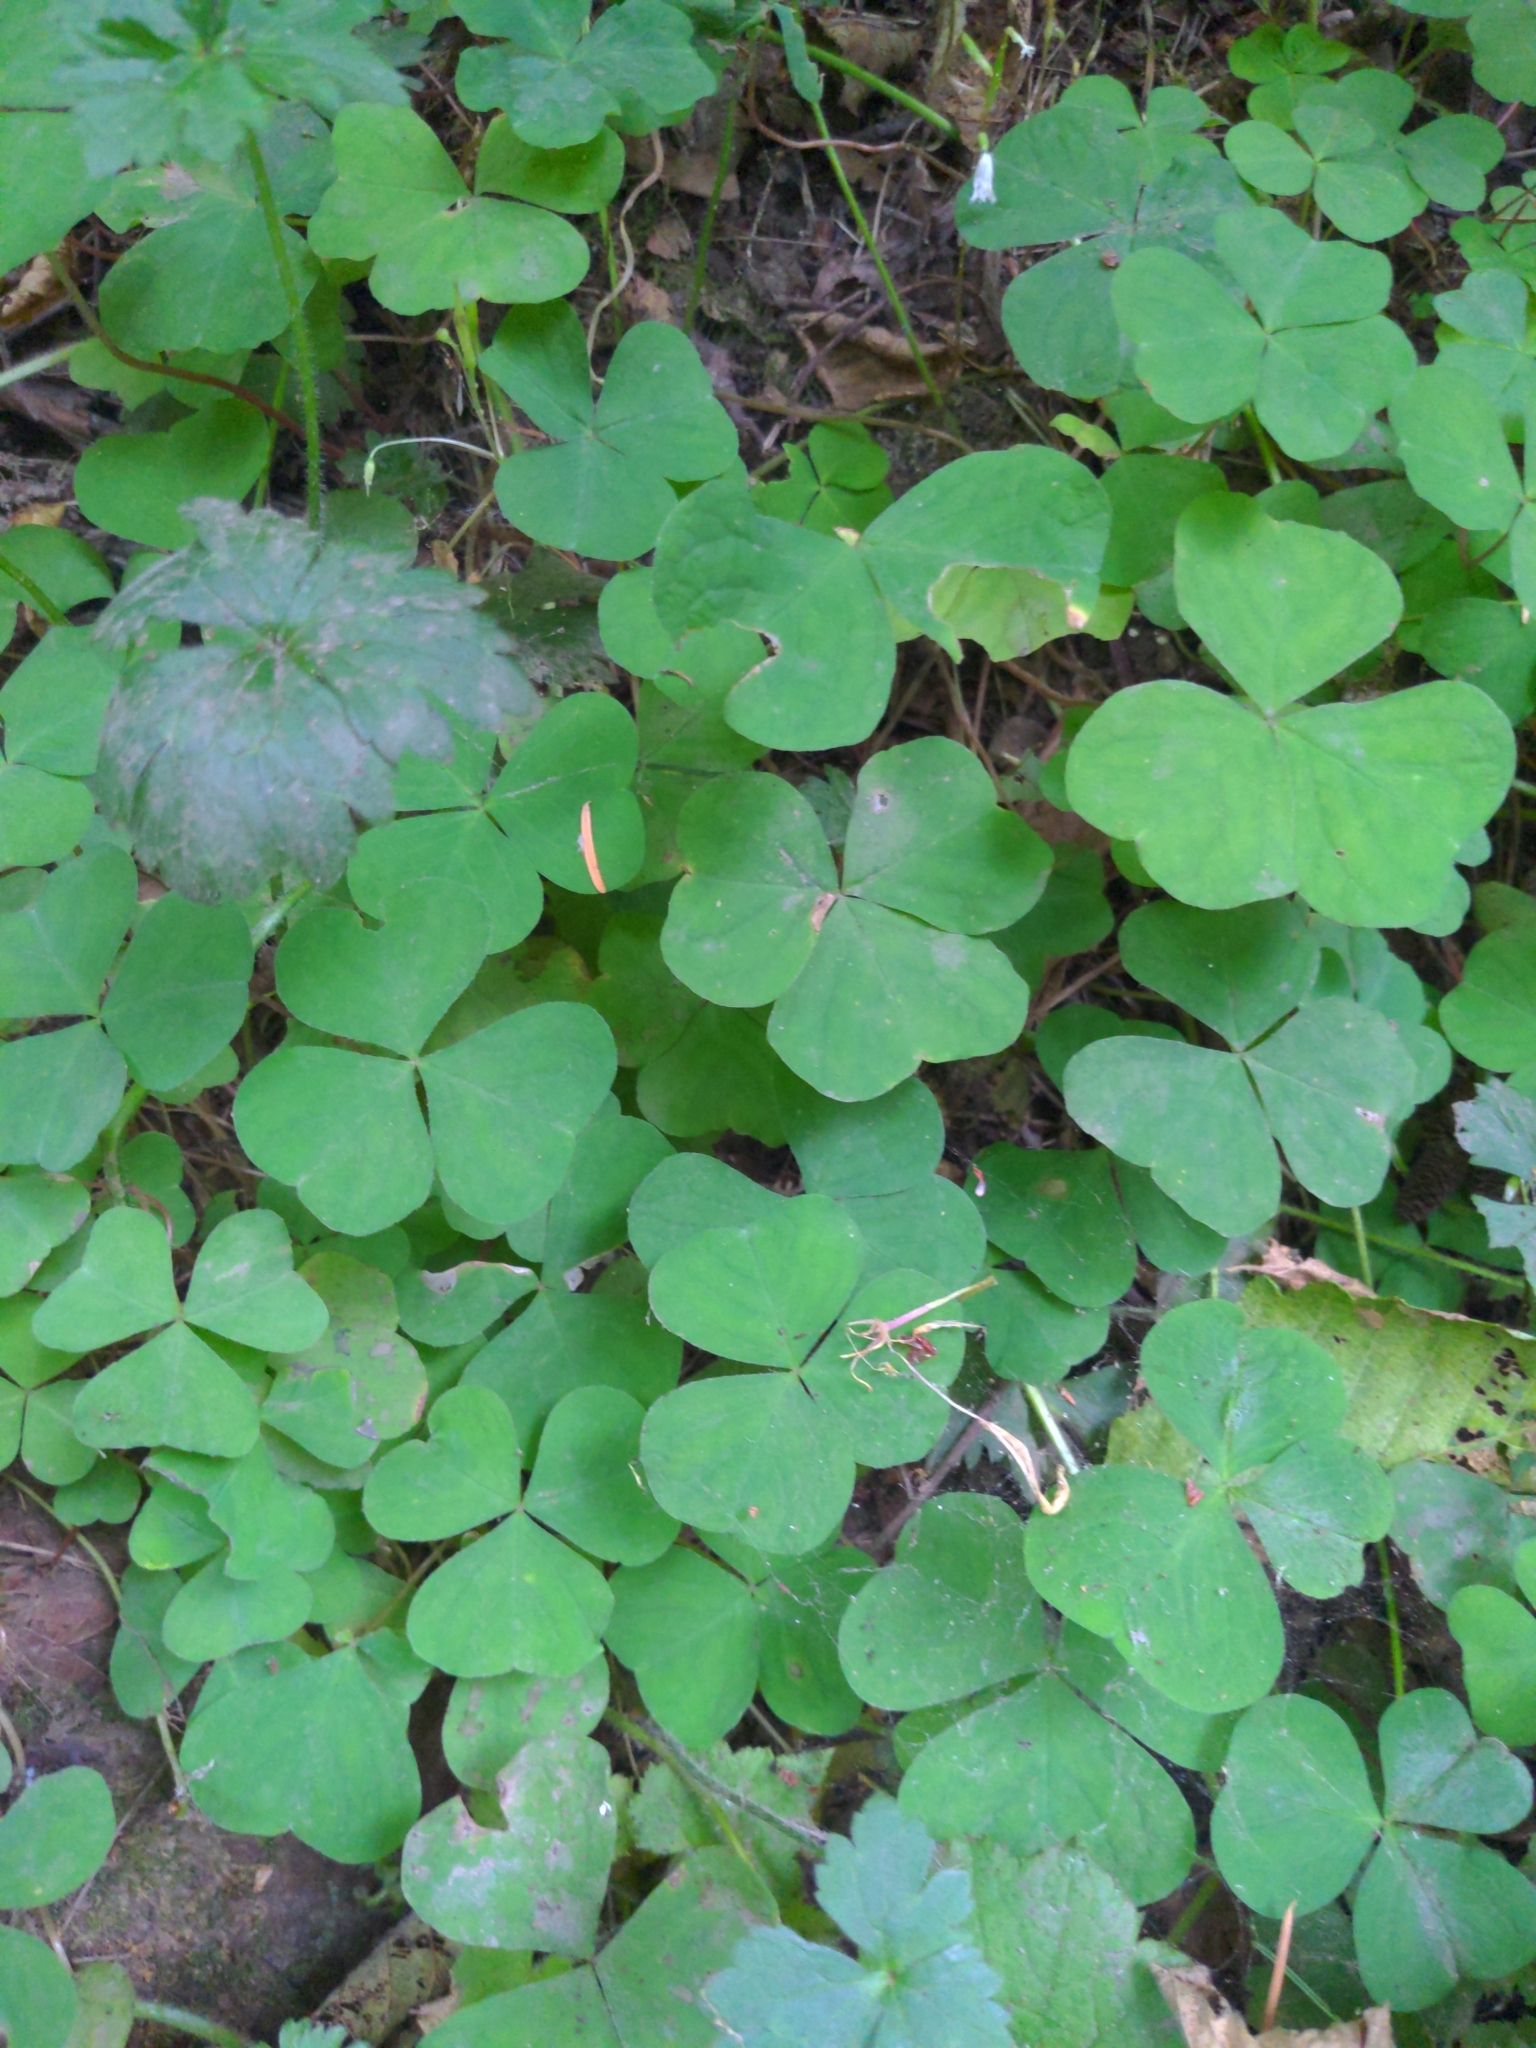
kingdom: Plantae
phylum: Tracheophyta
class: Magnoliopsida
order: Oxalidales
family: Oxalidaceae
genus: Oxalis
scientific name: Oxalis trilliifolia
